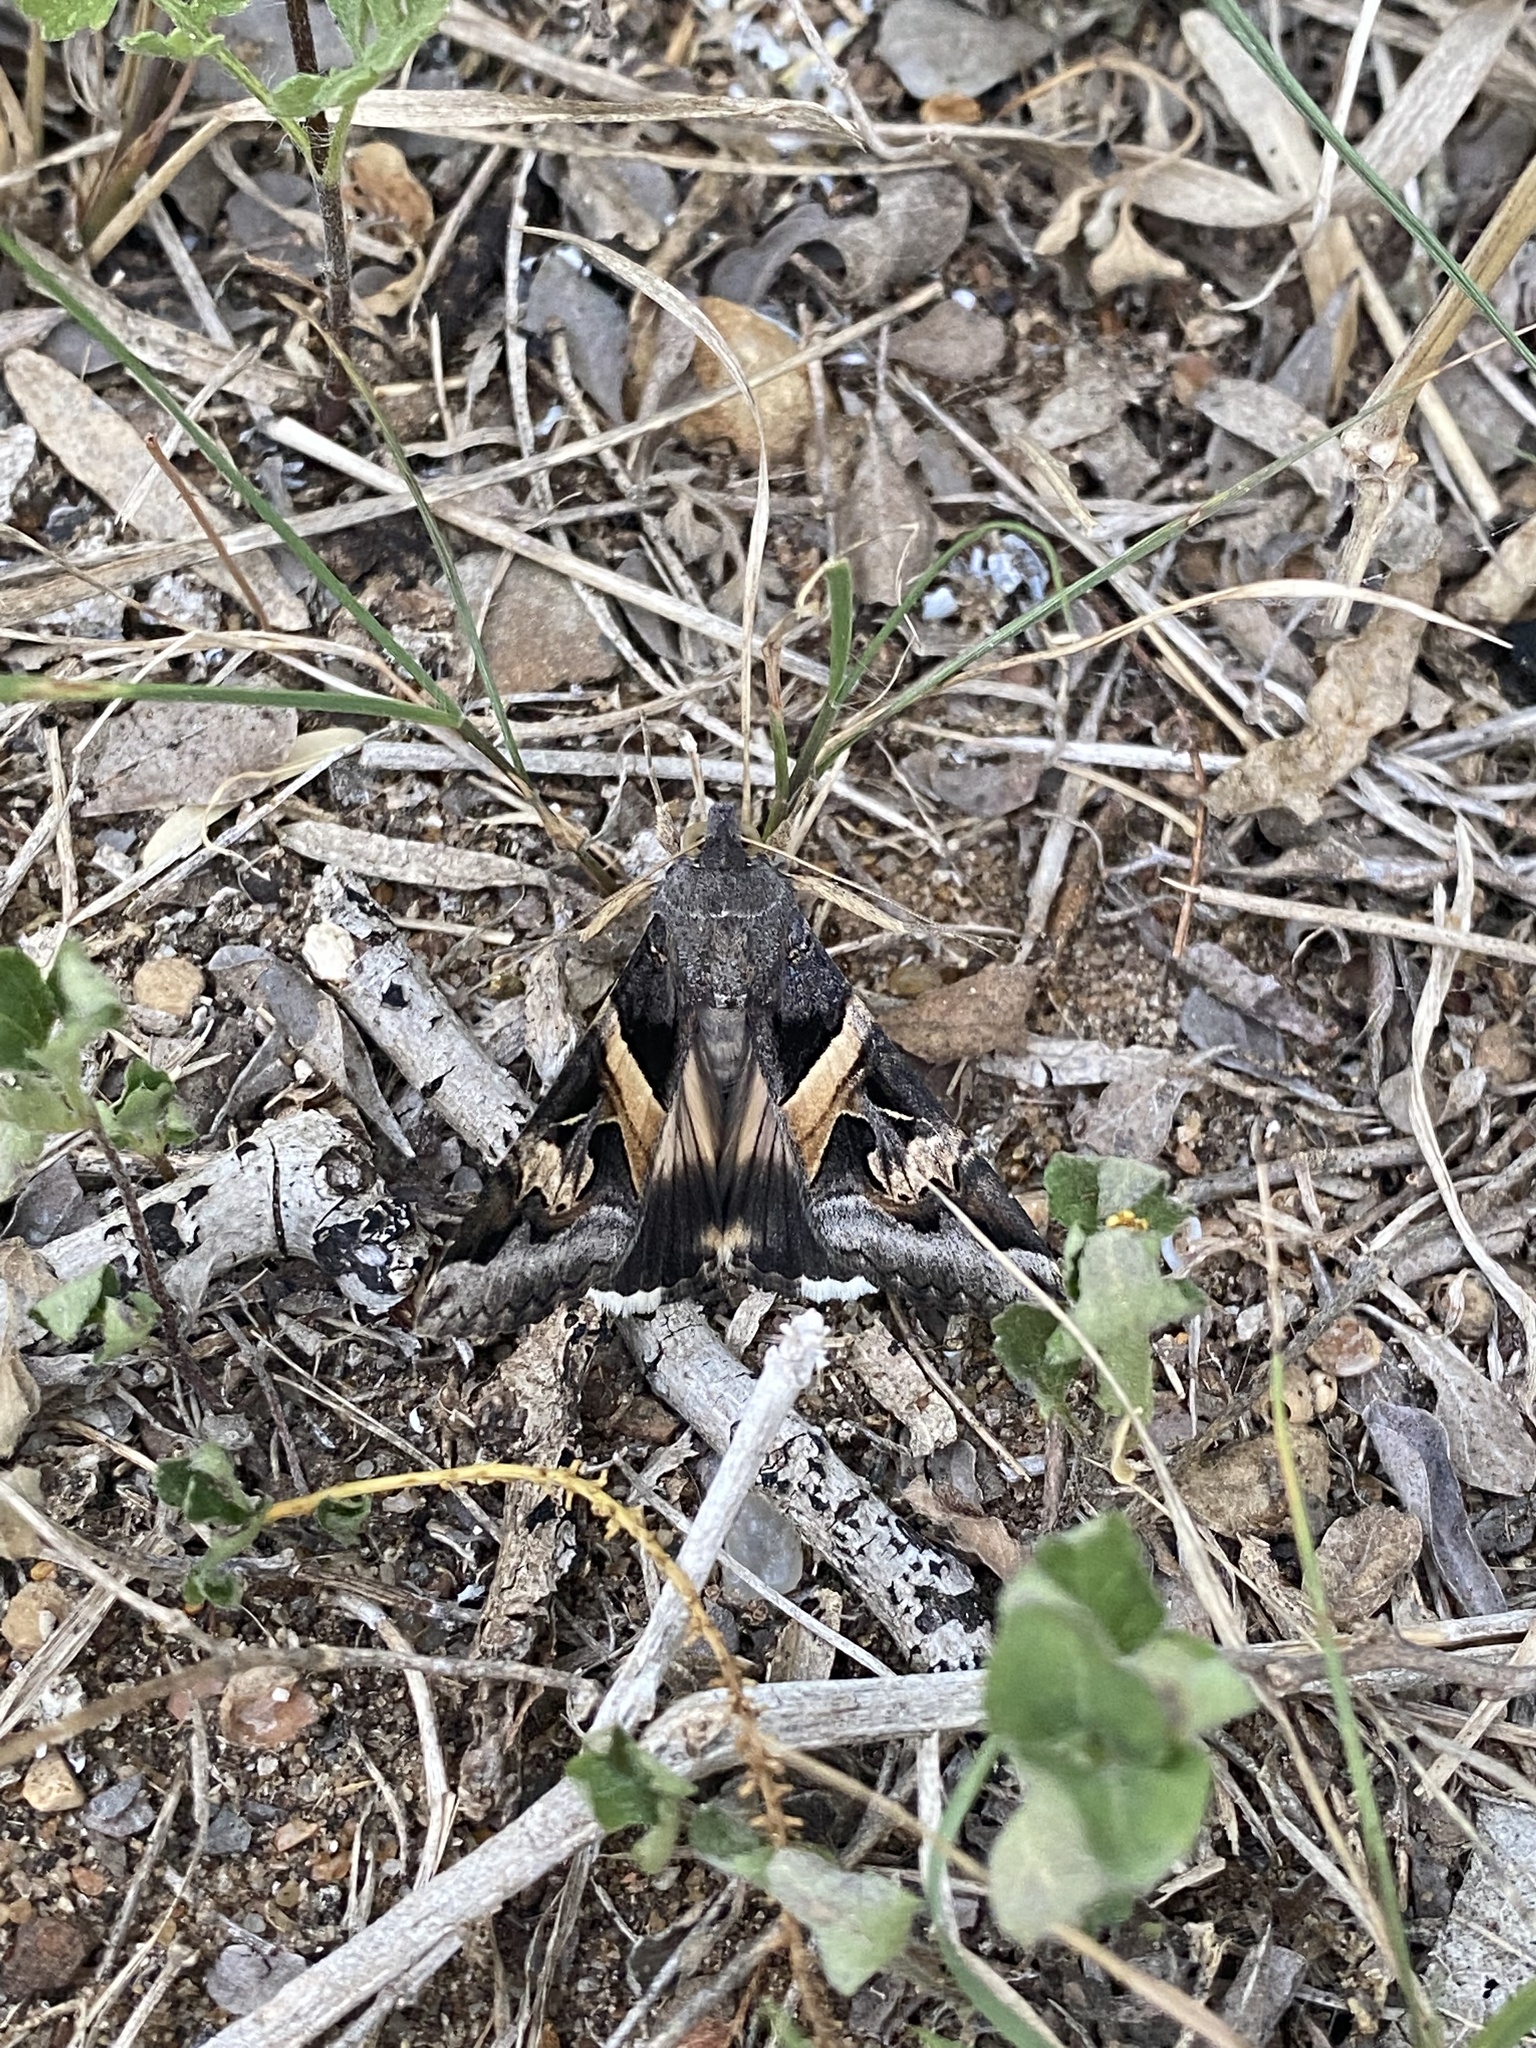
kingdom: Animalia
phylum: Arthropoda
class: Insecta
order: Lepidoptera
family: Erebidae
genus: Melipotis
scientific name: Melipotis indomita
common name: Moth
